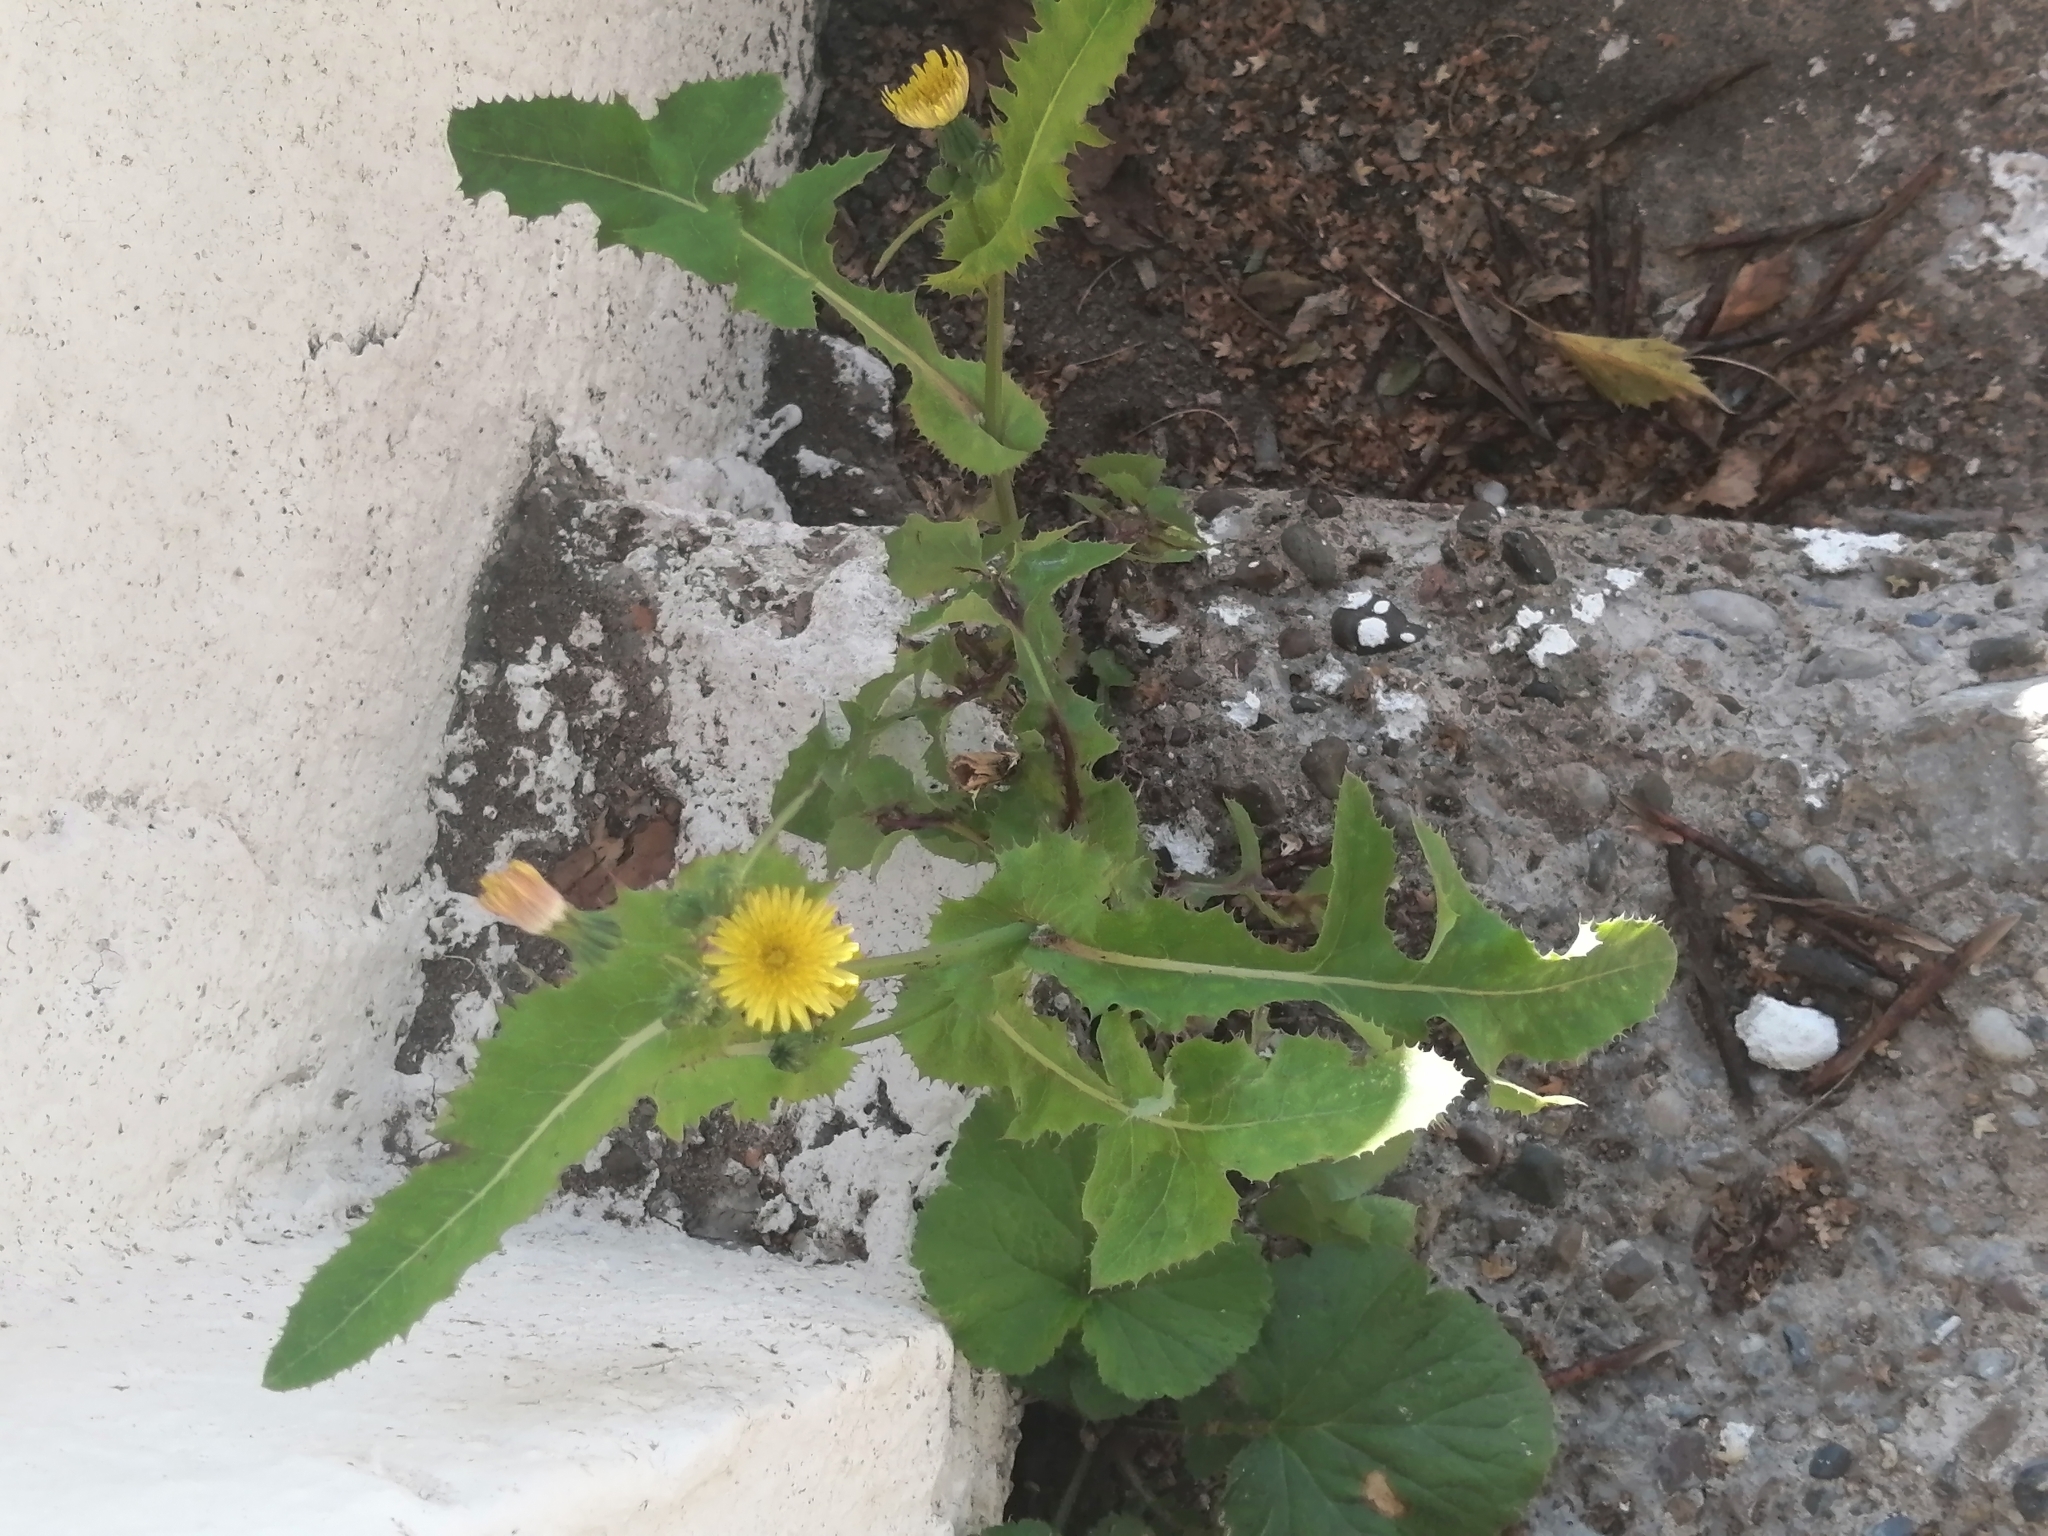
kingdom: Plantae
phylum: Tracheophyta
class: Magnoliopsida
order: Asterales
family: Asteraceae
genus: Sonchus
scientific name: Sonchus oleraceus
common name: Common sowthistle
